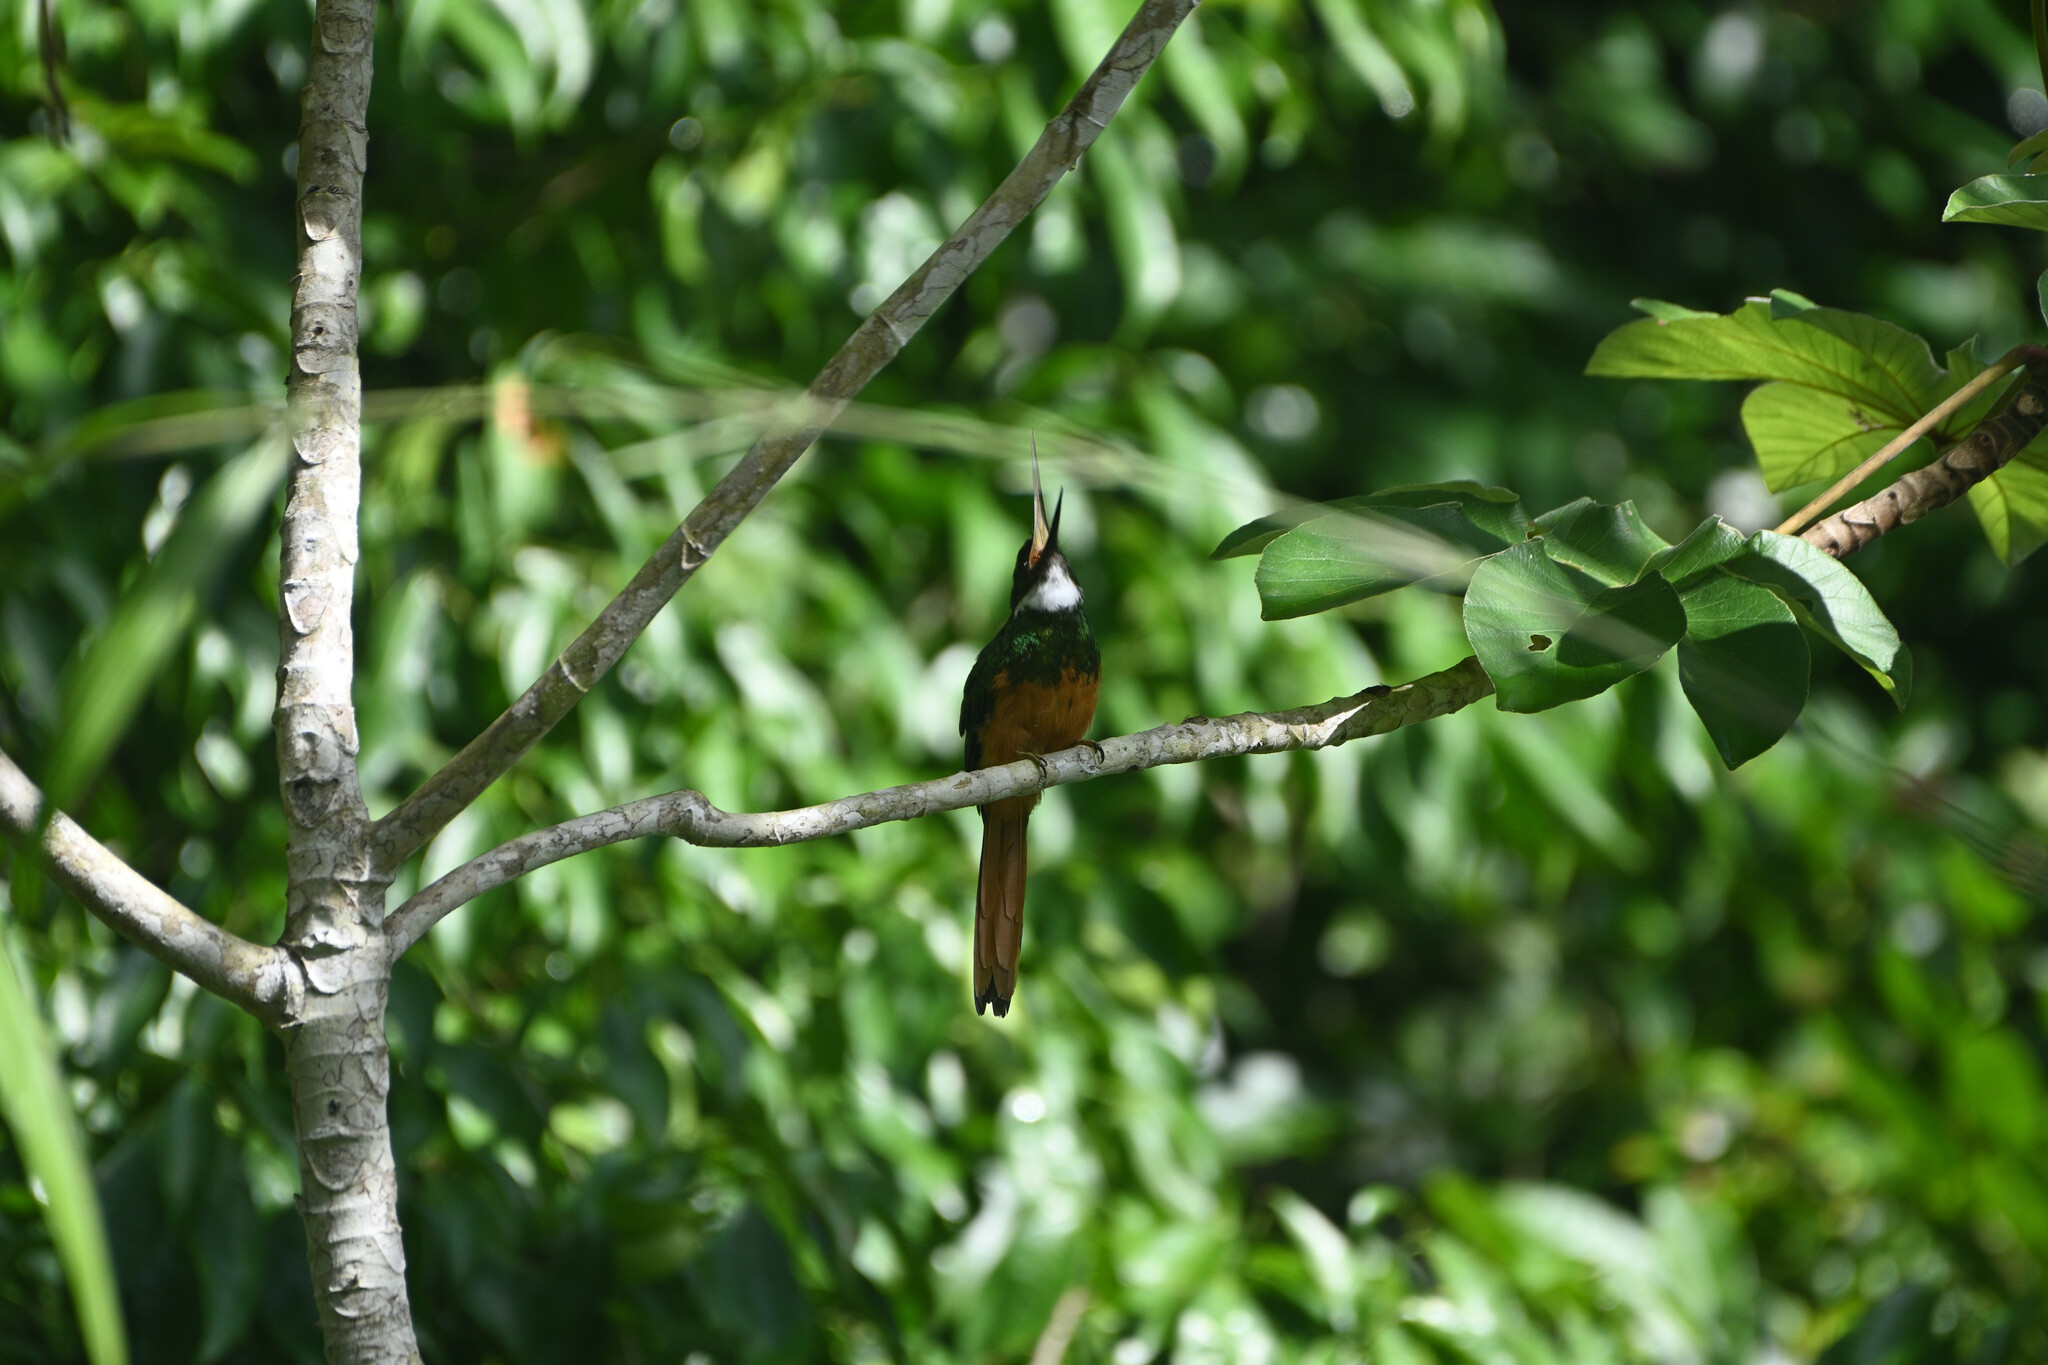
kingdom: Animalia
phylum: Chordata
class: Aves
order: Piciformes
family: Galbulidae
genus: Galbula
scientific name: Galbula ruficauda
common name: Rufous-tailed jacamar
